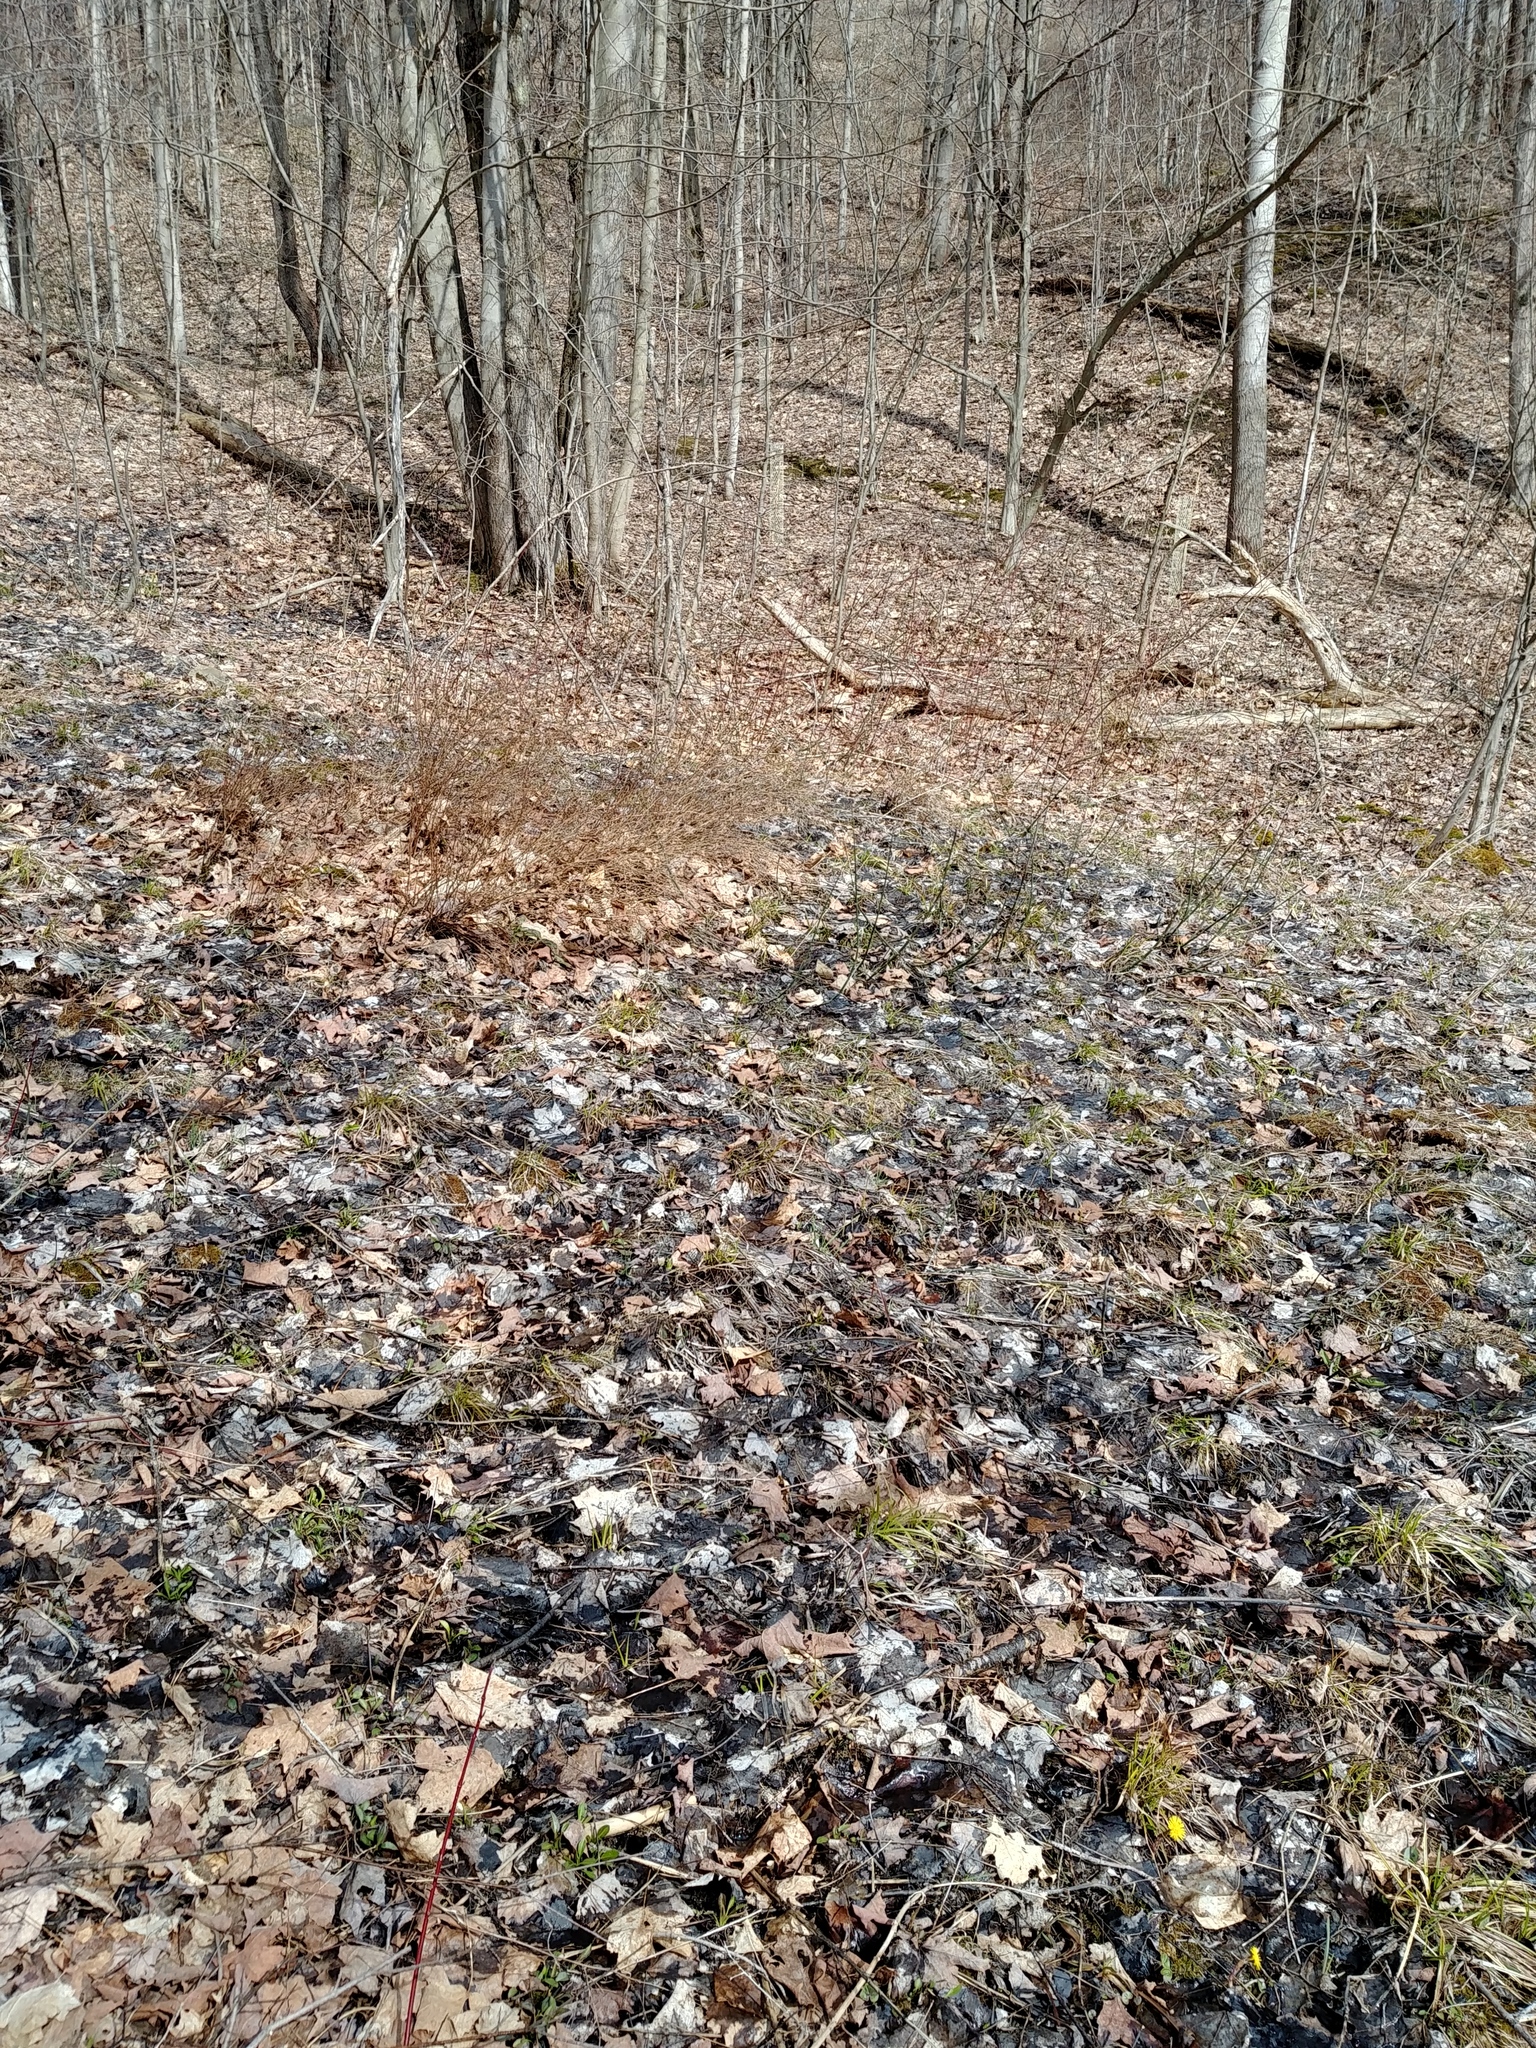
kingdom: Plantae
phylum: Tracheophyta
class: Magnoliopsida
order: Asterales
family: Asteraceae
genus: Tussilago
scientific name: Tussilago farfara
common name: Coltsfoot
